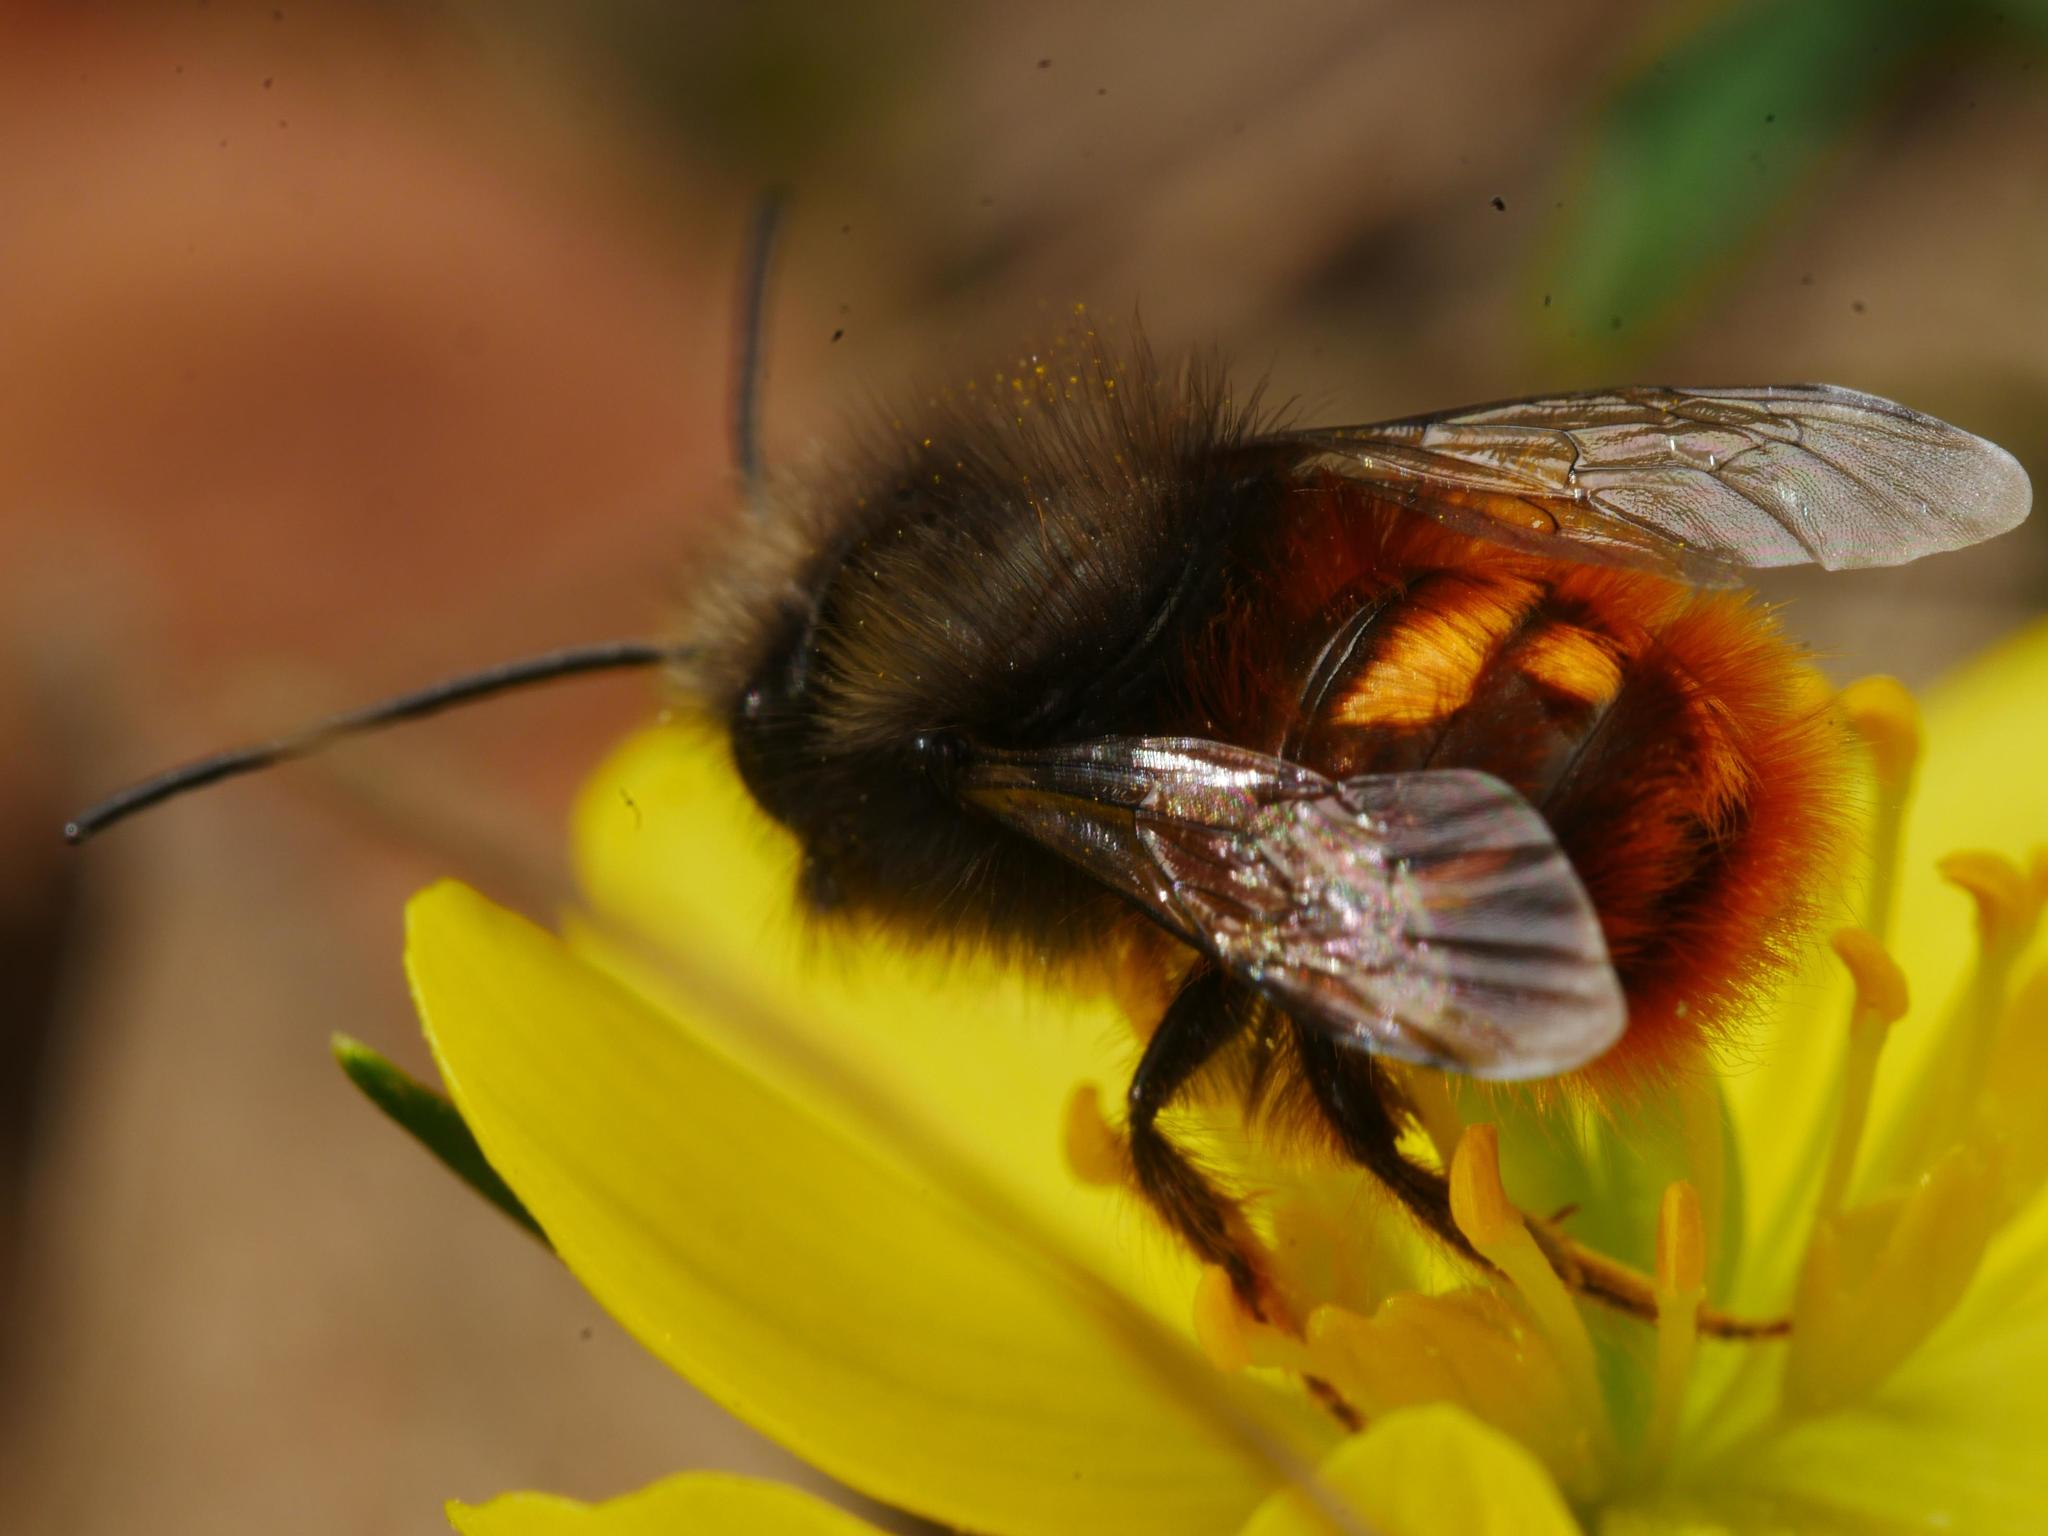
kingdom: Animalia
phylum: Arthropoda
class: Insecta
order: Hymenoptera
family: Megachilidae
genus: Osmia
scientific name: Osmia cornuta
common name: Mason bee
